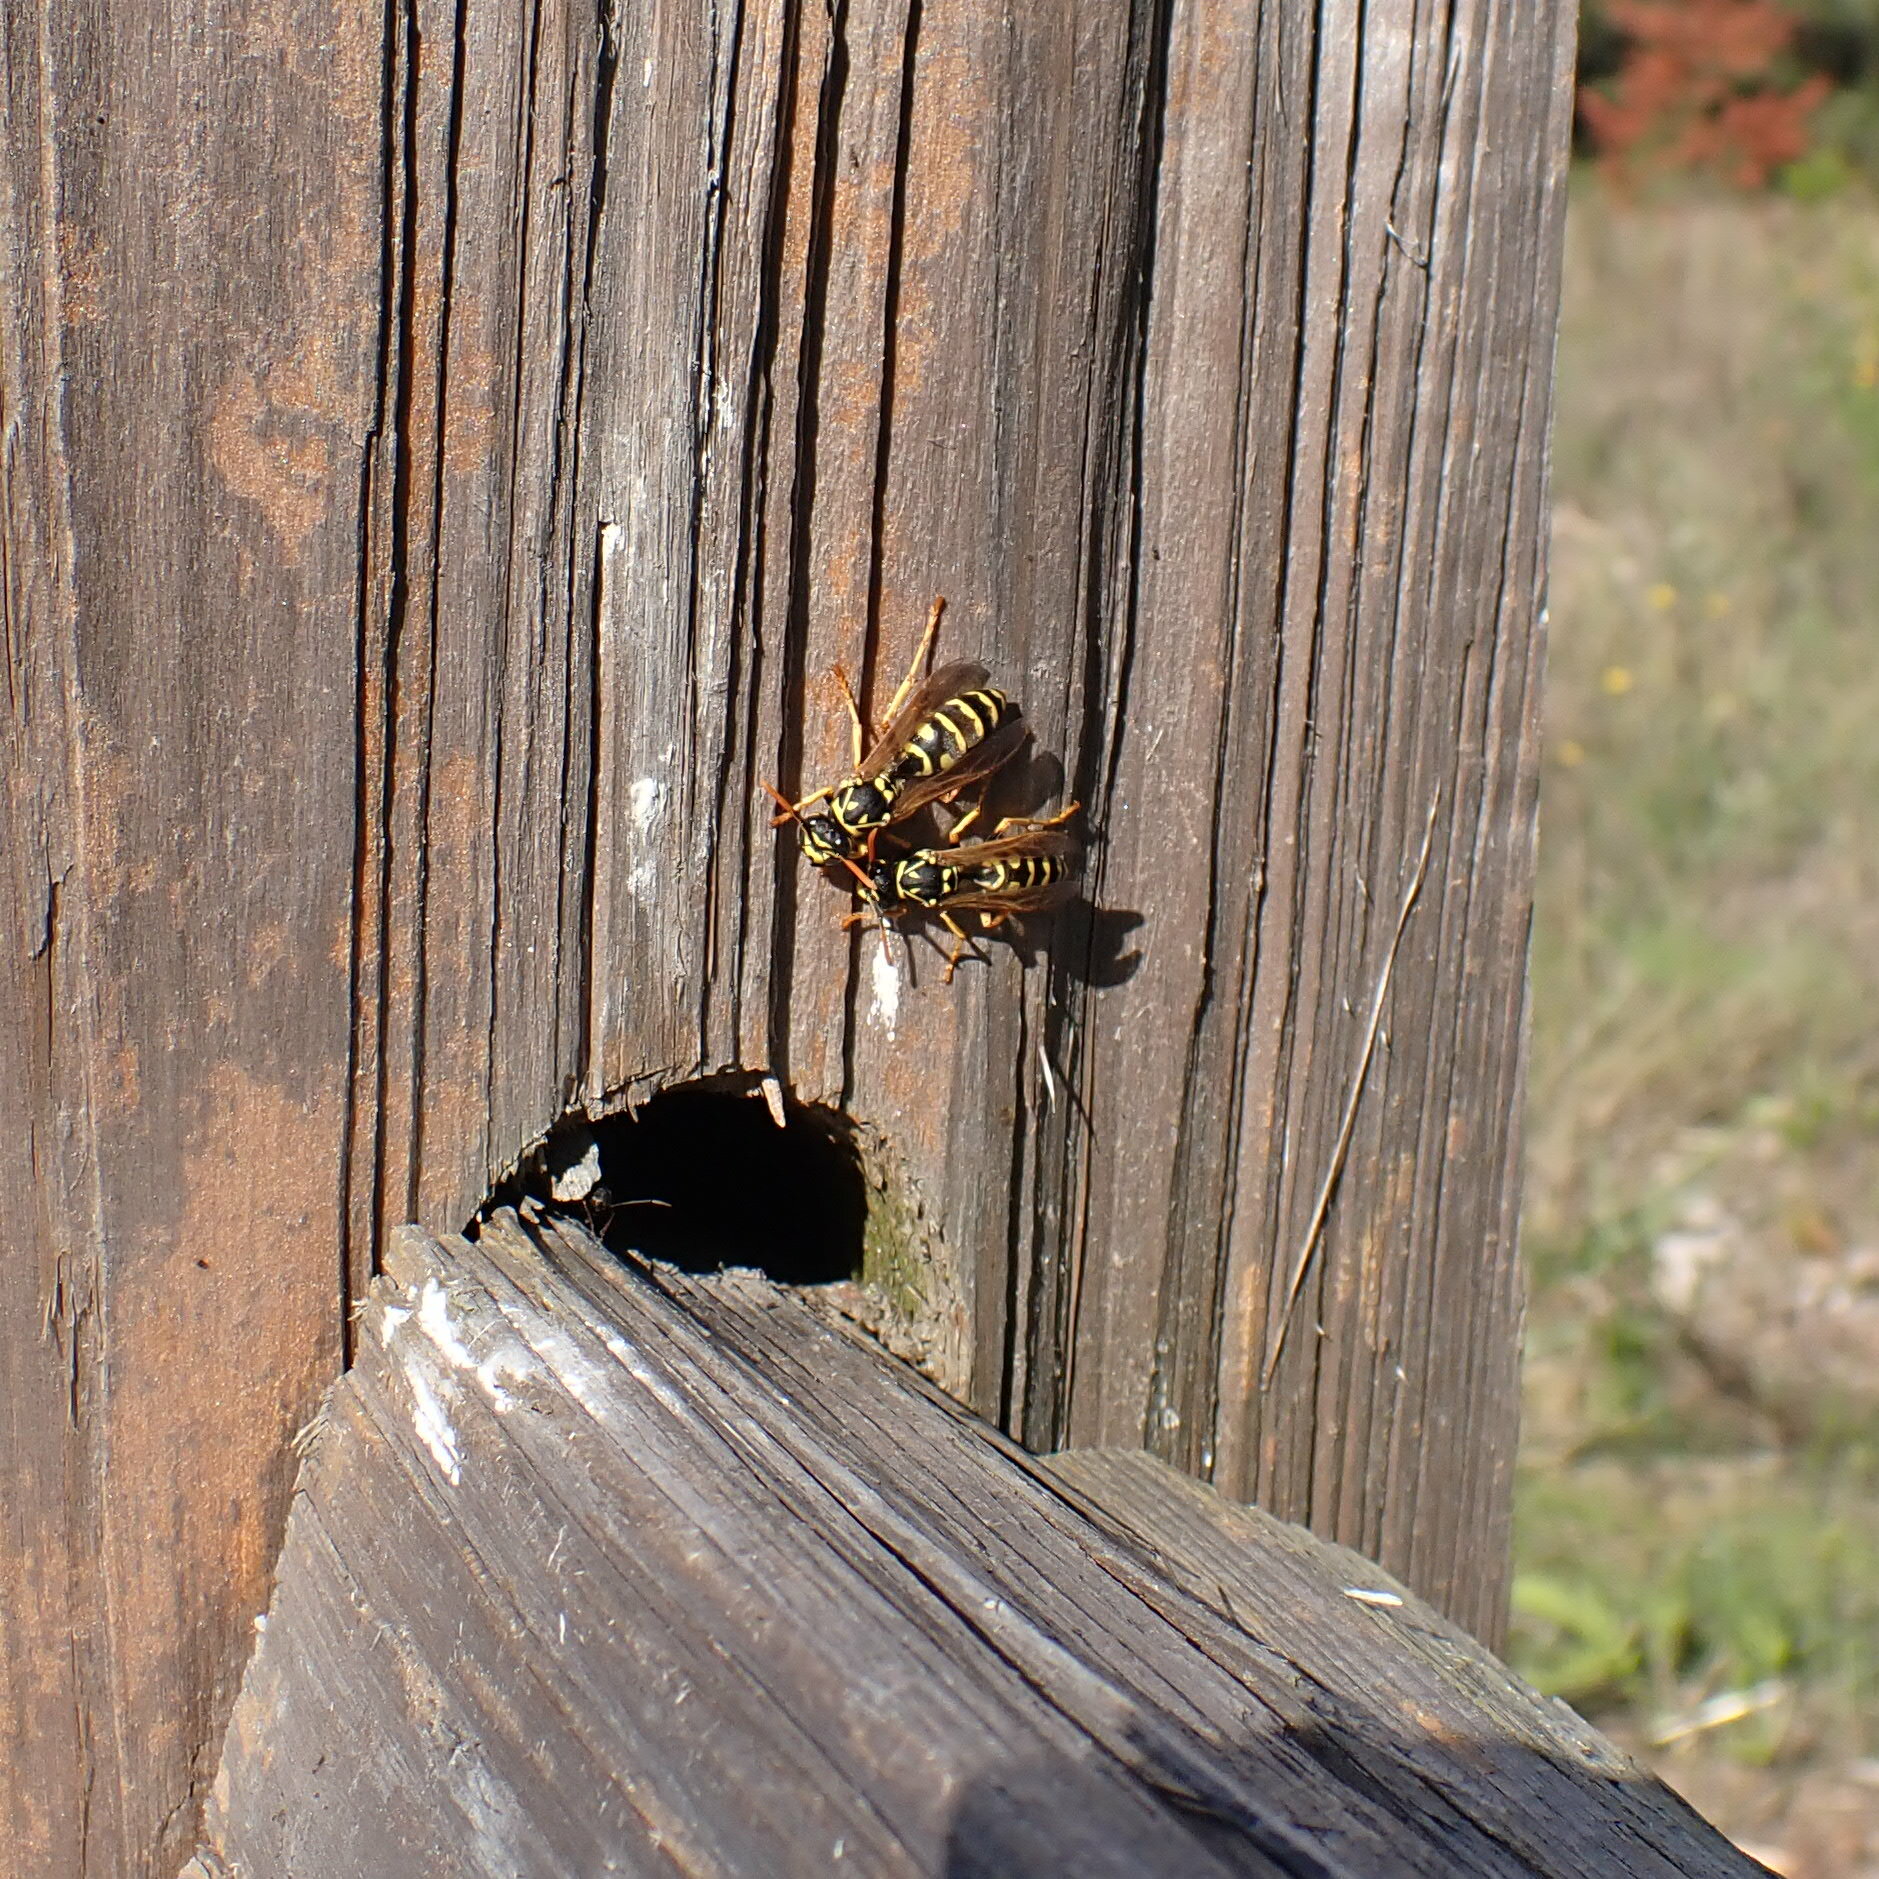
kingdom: Animalia
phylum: Arthropoda
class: Insecta
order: Hymenoptera
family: Eumenidae
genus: Polistes
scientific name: Polistes dominula
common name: Paper wasp
